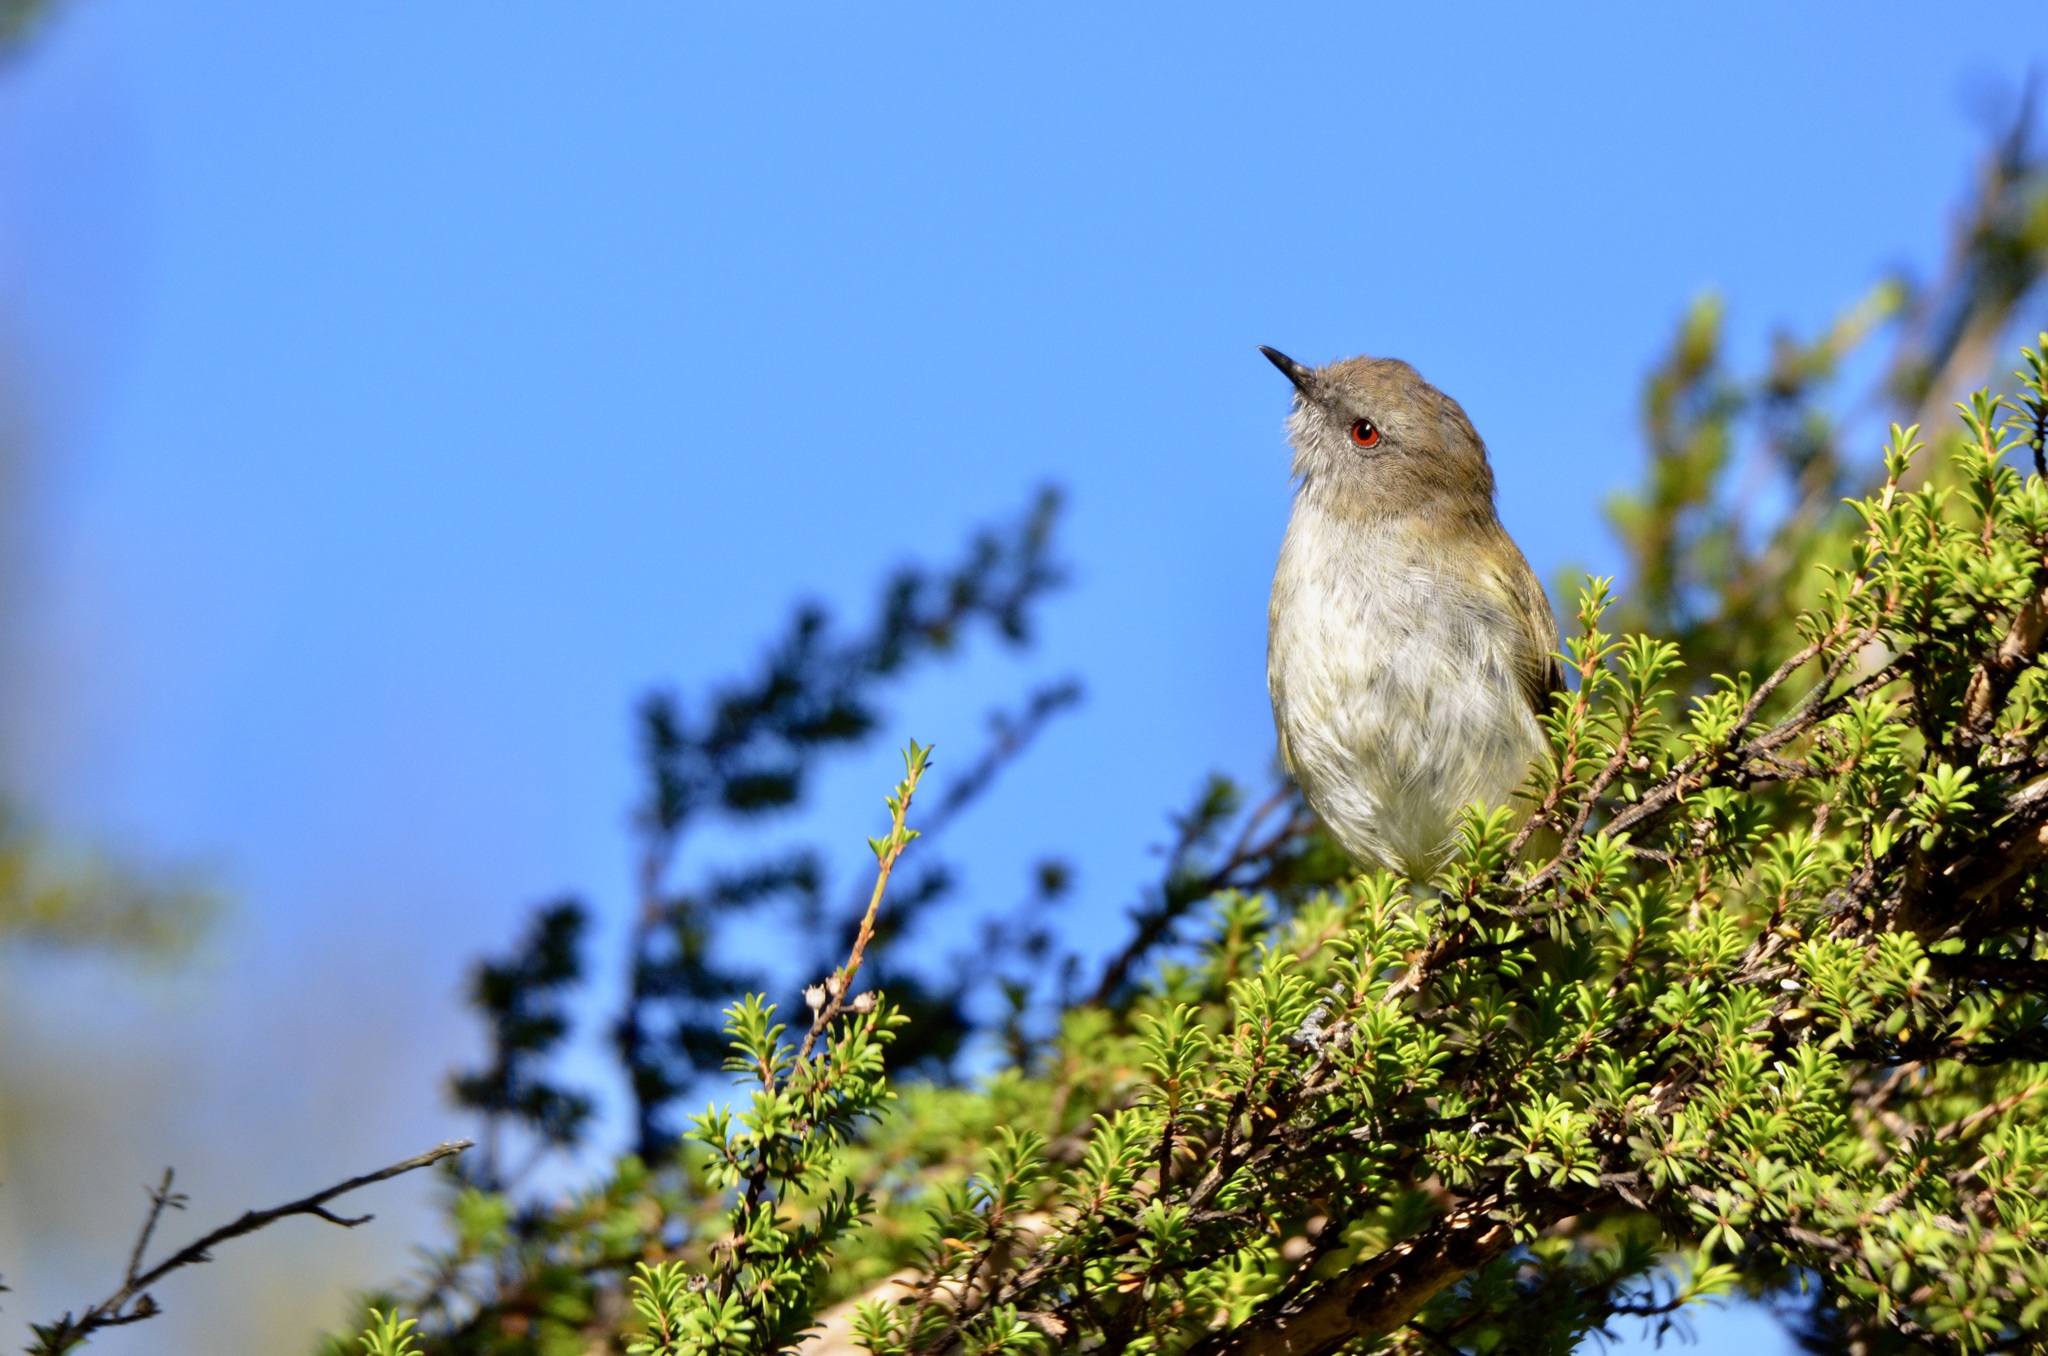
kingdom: Animalia
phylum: Chordata
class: Aves
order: Passeriformes
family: Acanthizidae
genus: Gerygone
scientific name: Gerygone igata
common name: Grey gerygone
